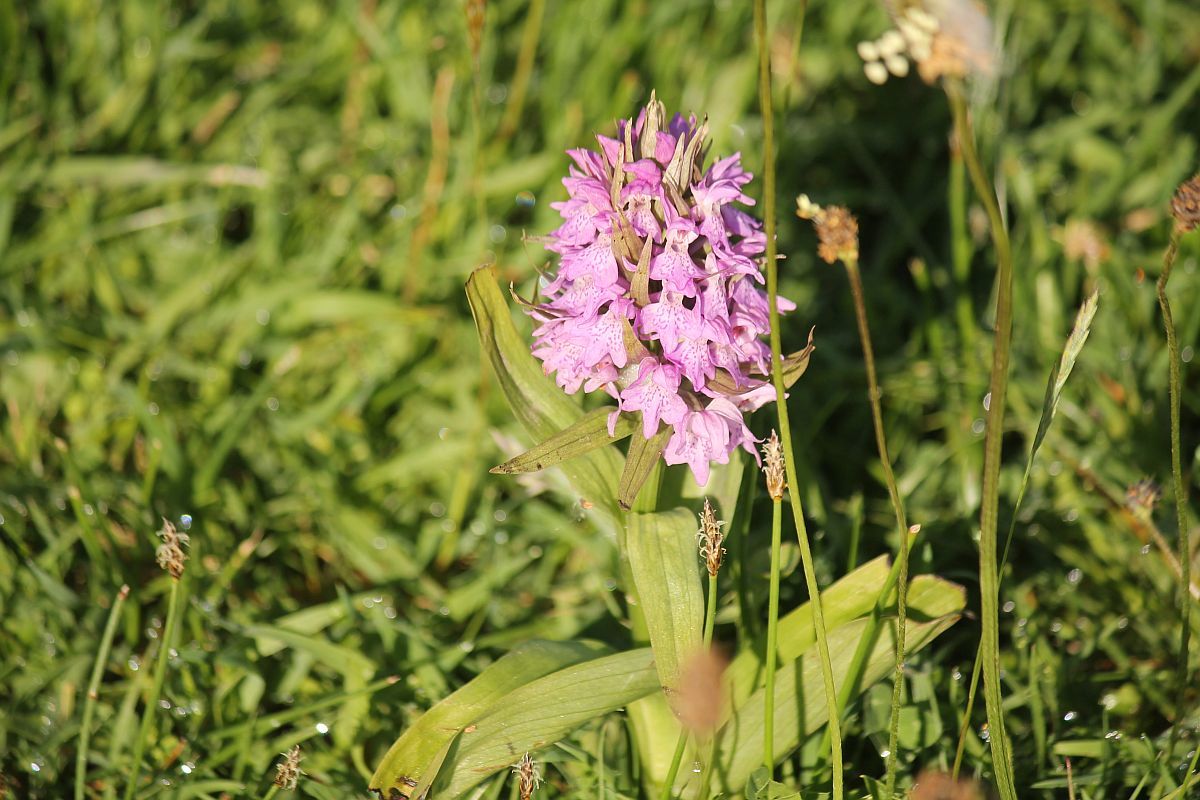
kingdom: Plantae
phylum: Tracheophyta
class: Liliopsida
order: Asparagales
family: Orchidaceae
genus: Dactylorhiza
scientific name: Dactylorhiza majalis
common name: Marsh orchid
